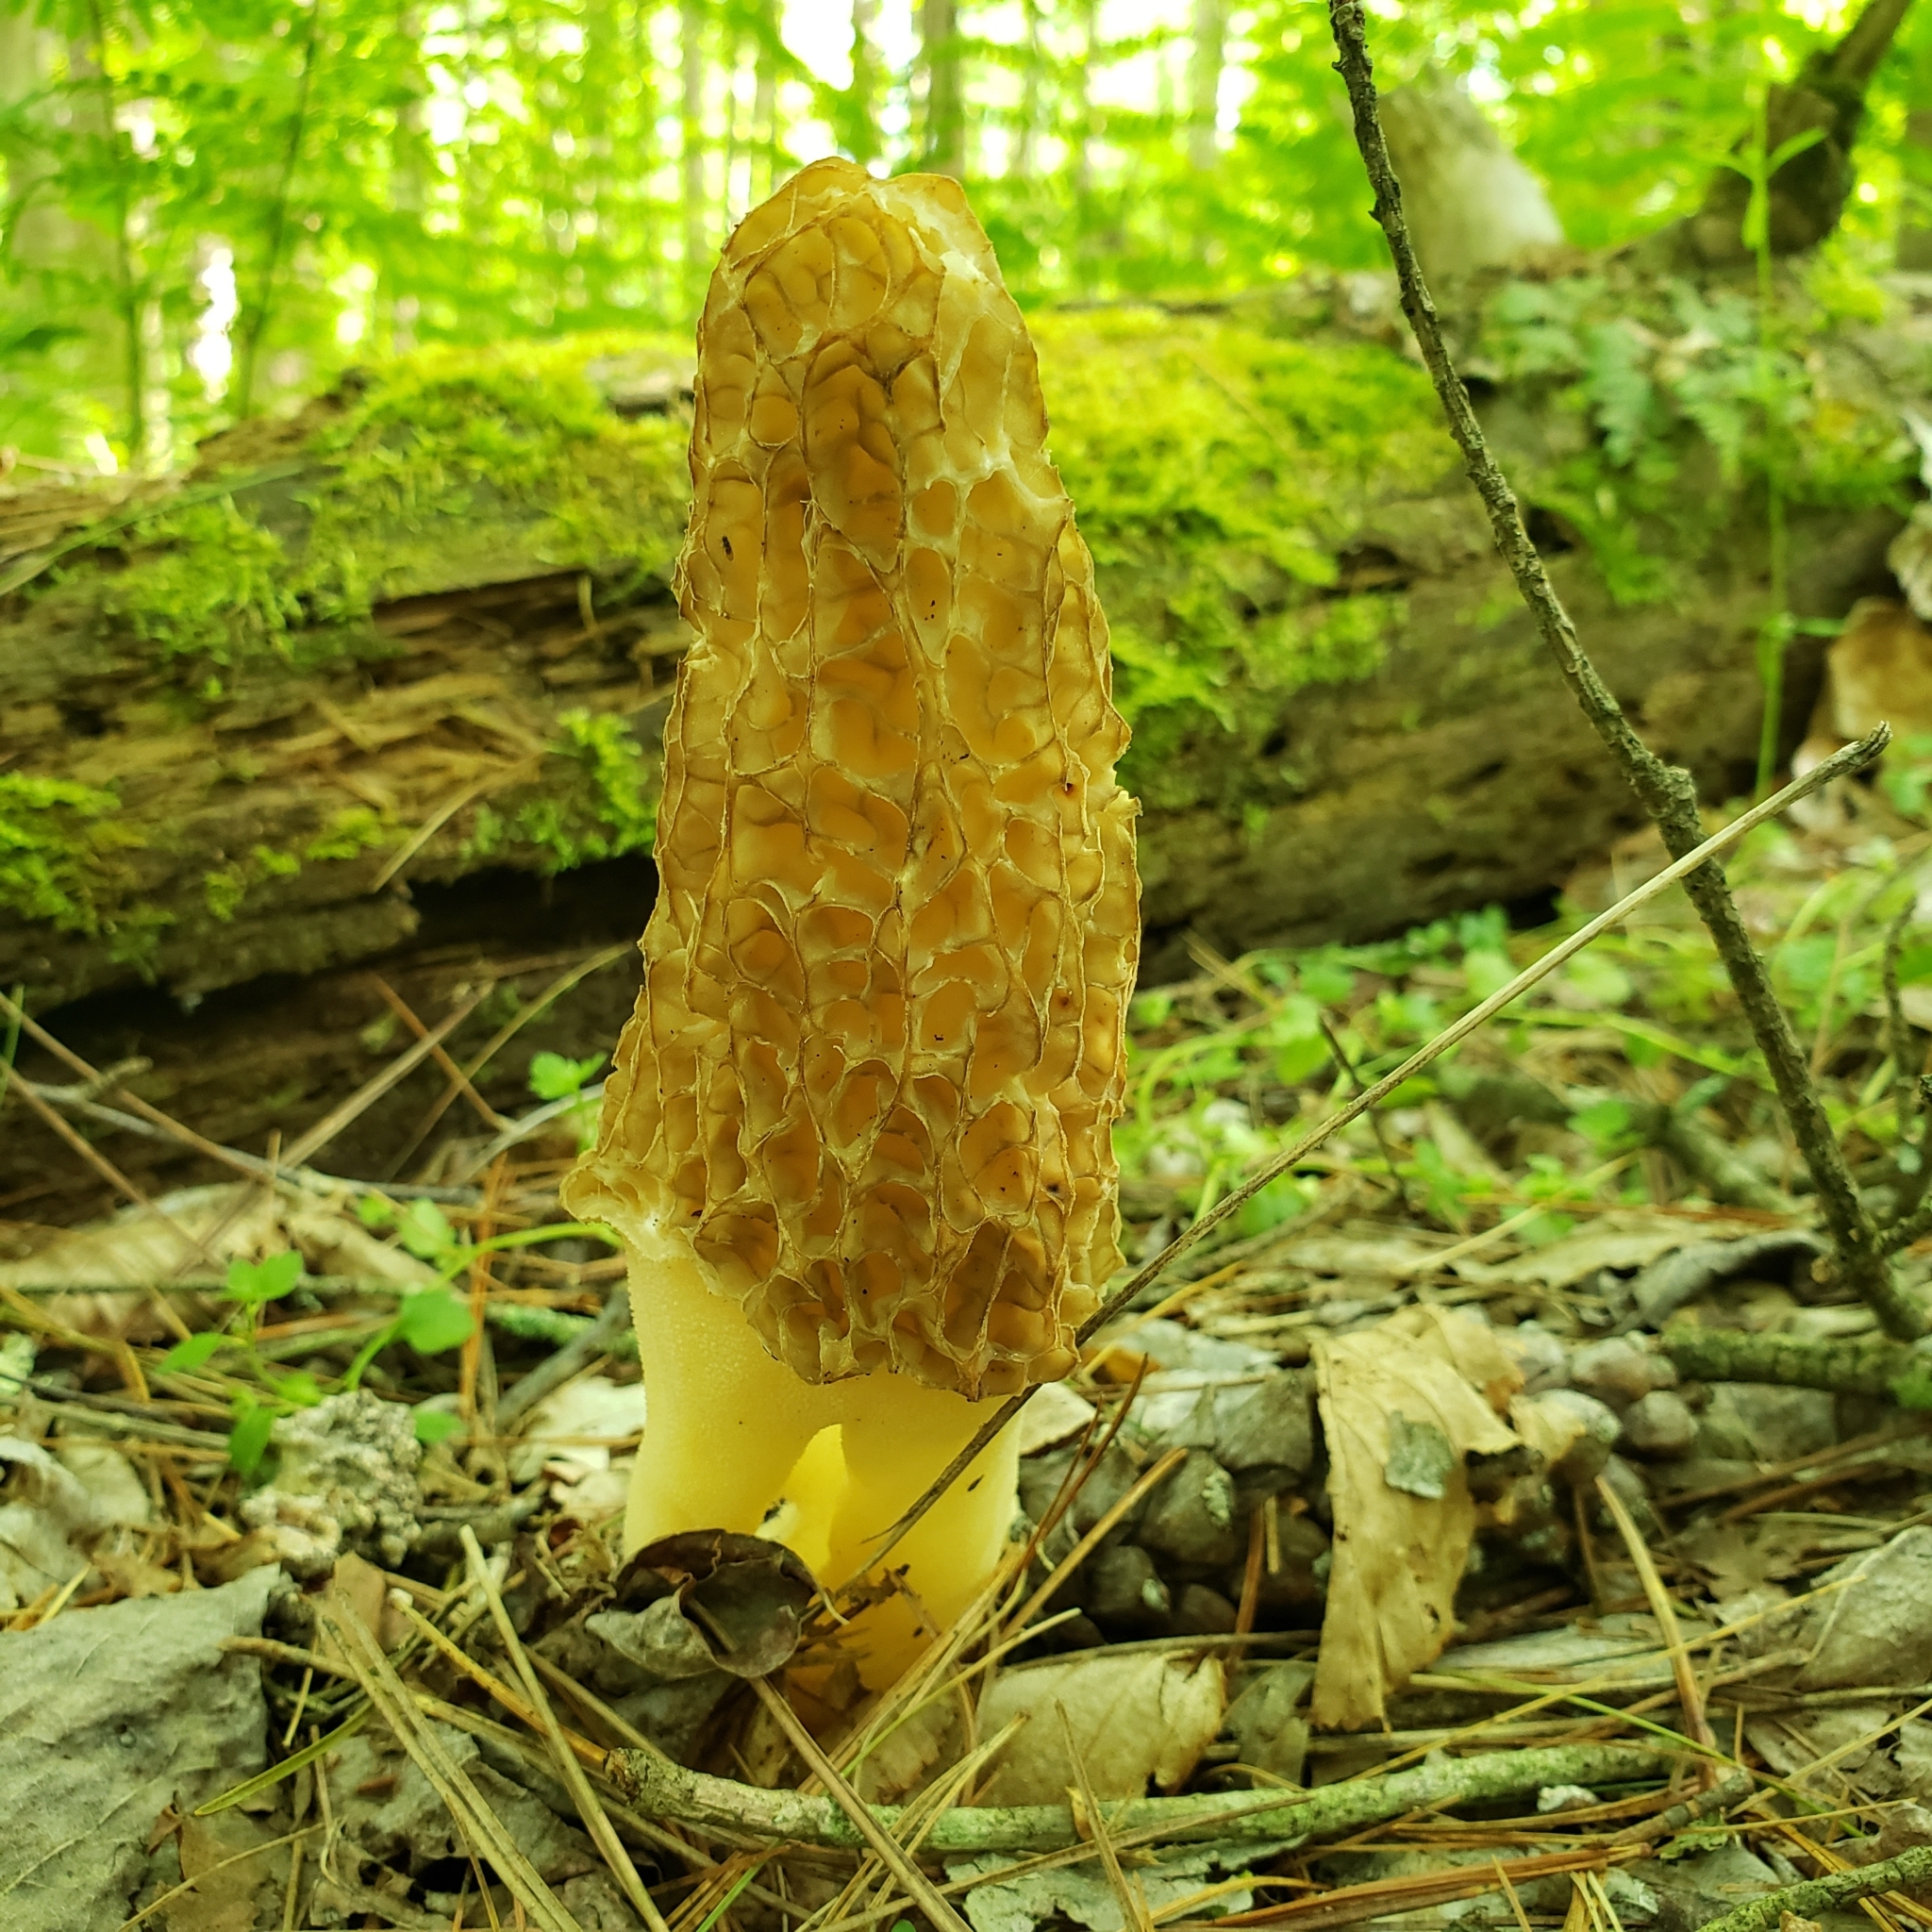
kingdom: Fungi
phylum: Ascomycota
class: Pezizomycetes
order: Pezizales
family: Morchellaceae
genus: Morchella
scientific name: Morchella americana
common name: White morel
